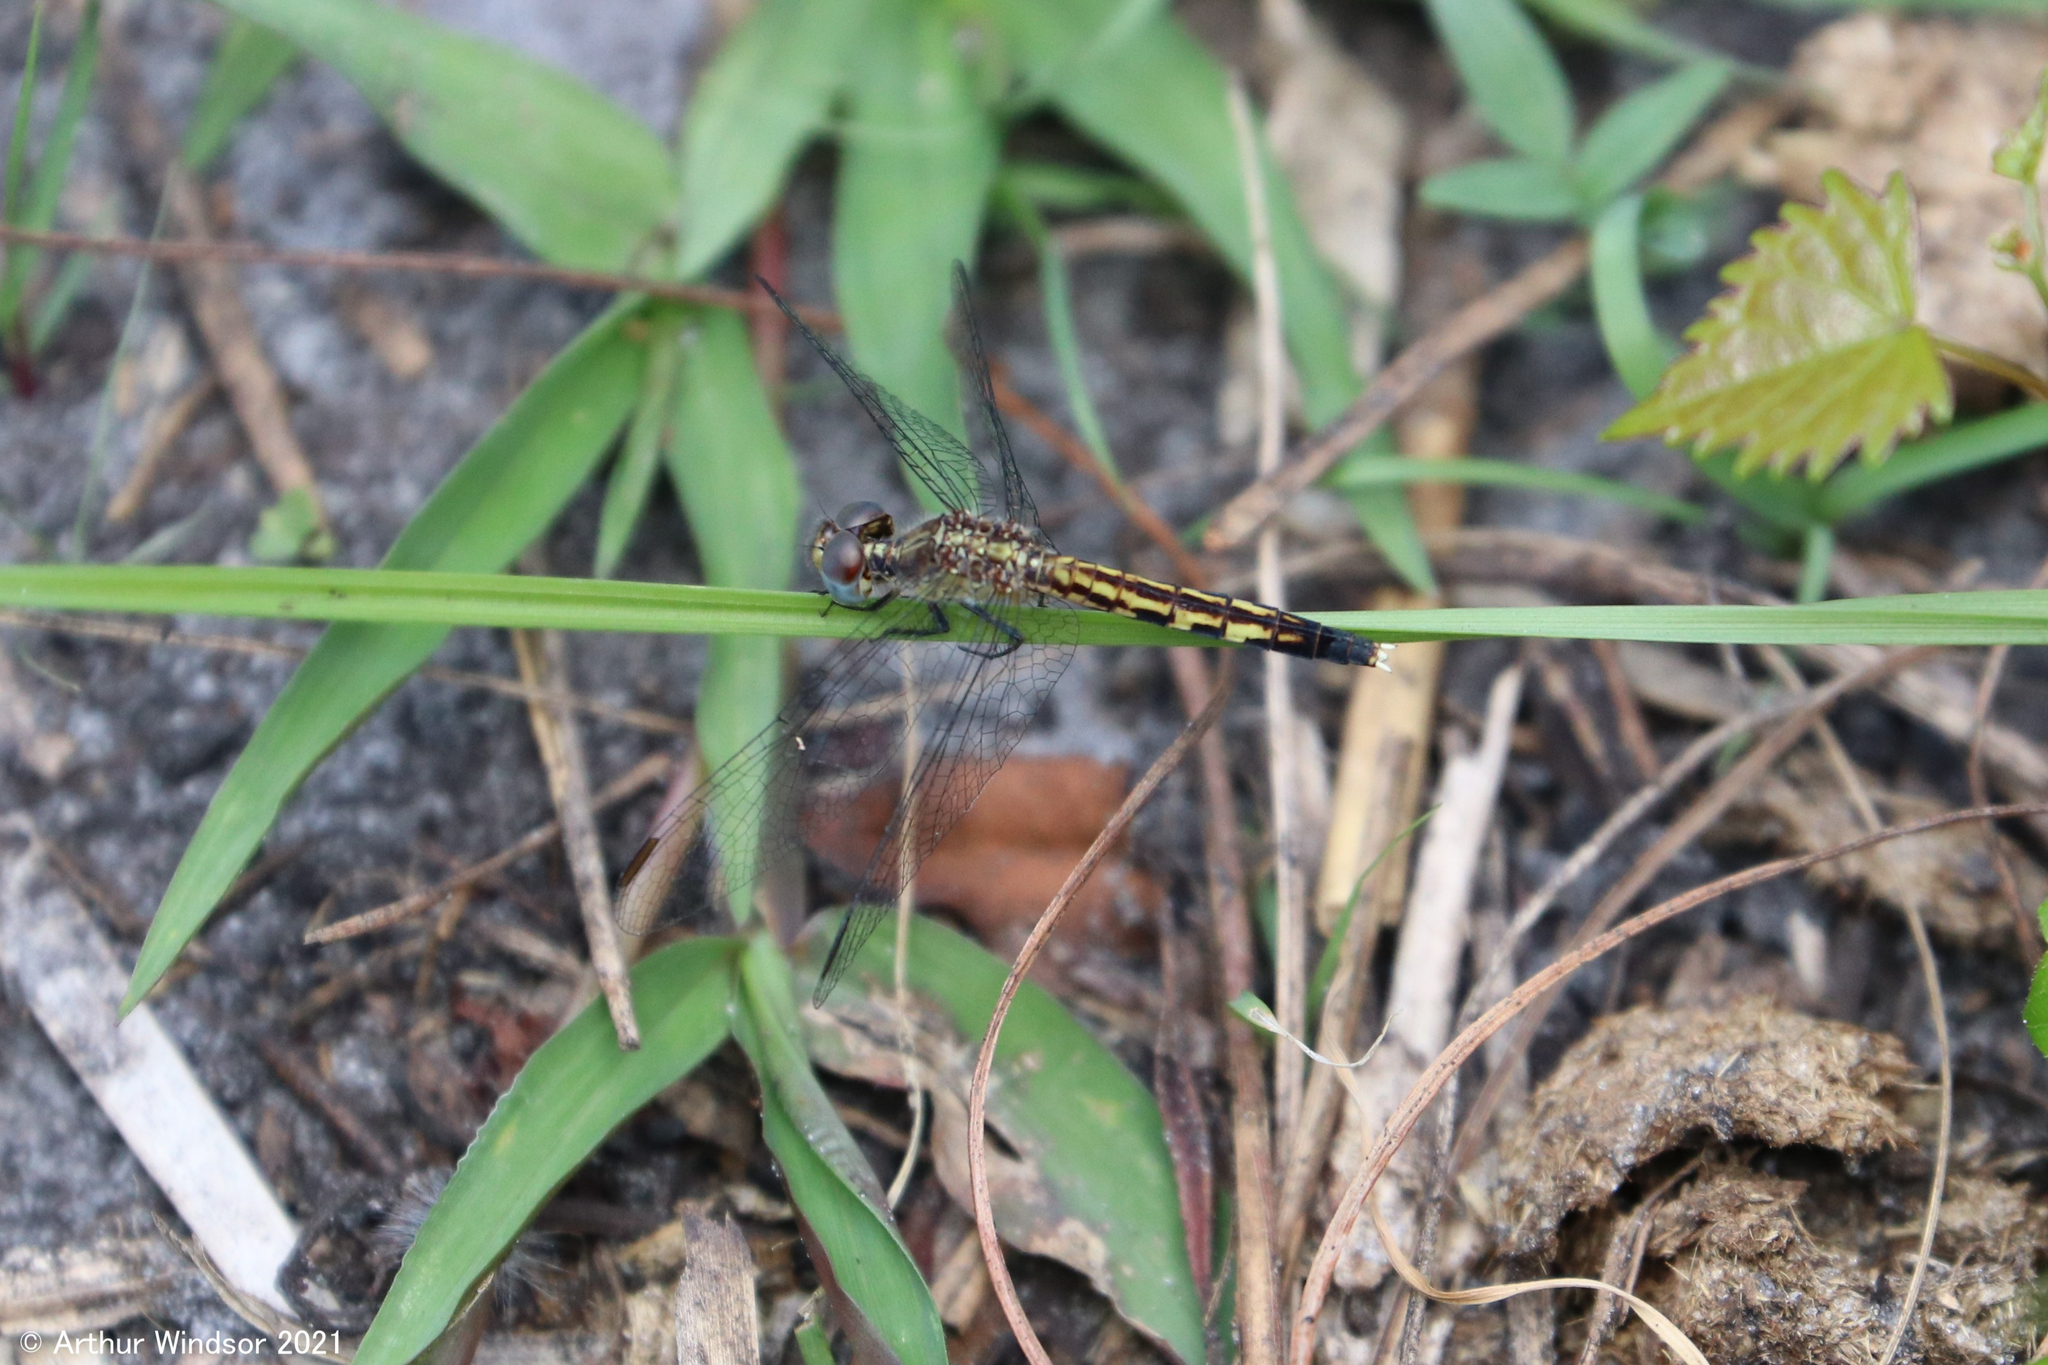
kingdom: Animalia
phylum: Arthropoda
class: Insecta
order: Odonata
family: Libellulidae
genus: Erythrodiplax
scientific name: Erythrodiplax minuscula
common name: Little blue dragonlet
